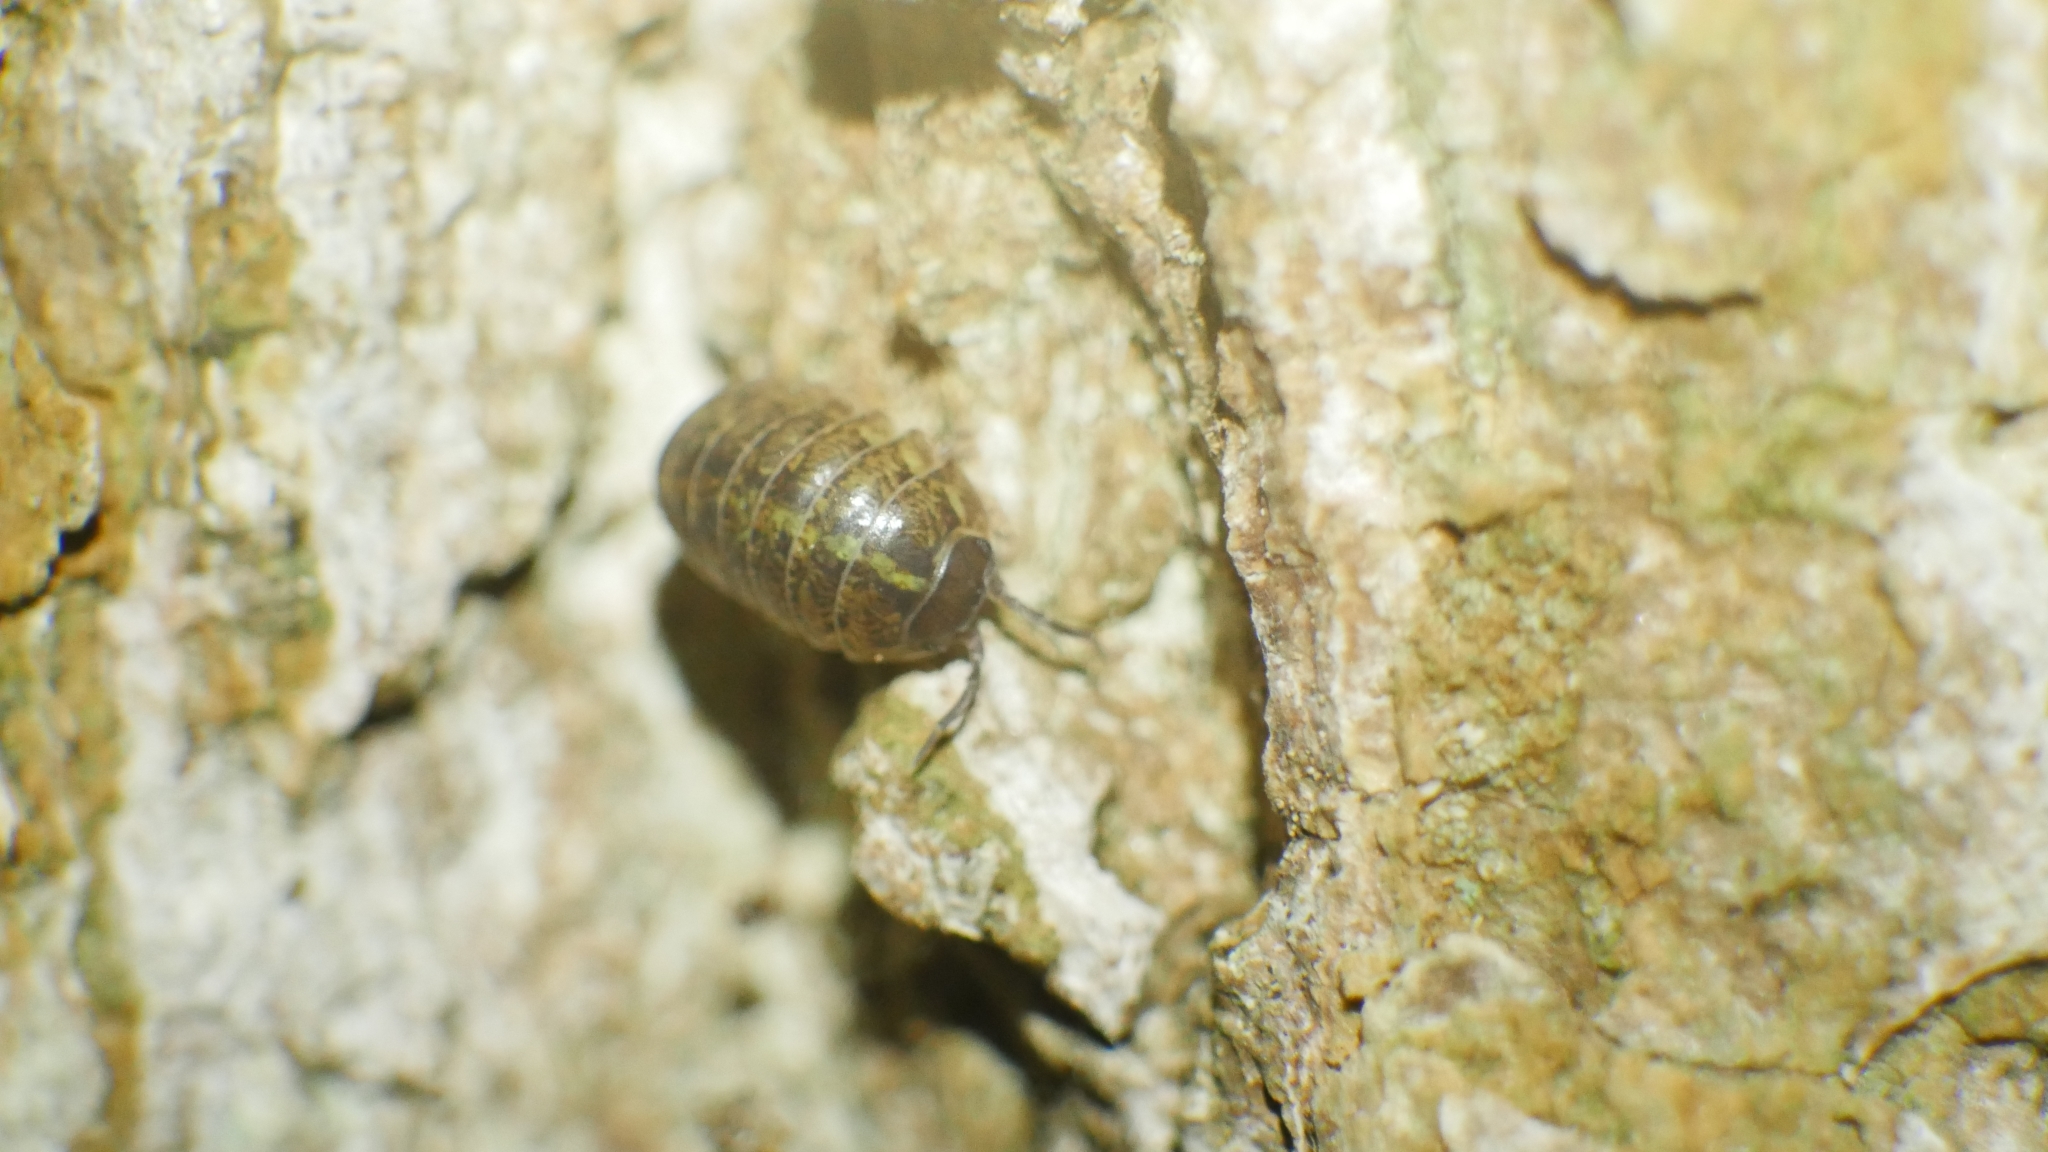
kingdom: Animalia
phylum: Arthropoda
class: Malacostraca
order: Isopoda
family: Armadillidiidae
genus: Armadillidium
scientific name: Armadillidium vulgare
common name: Common pill woodlouse
